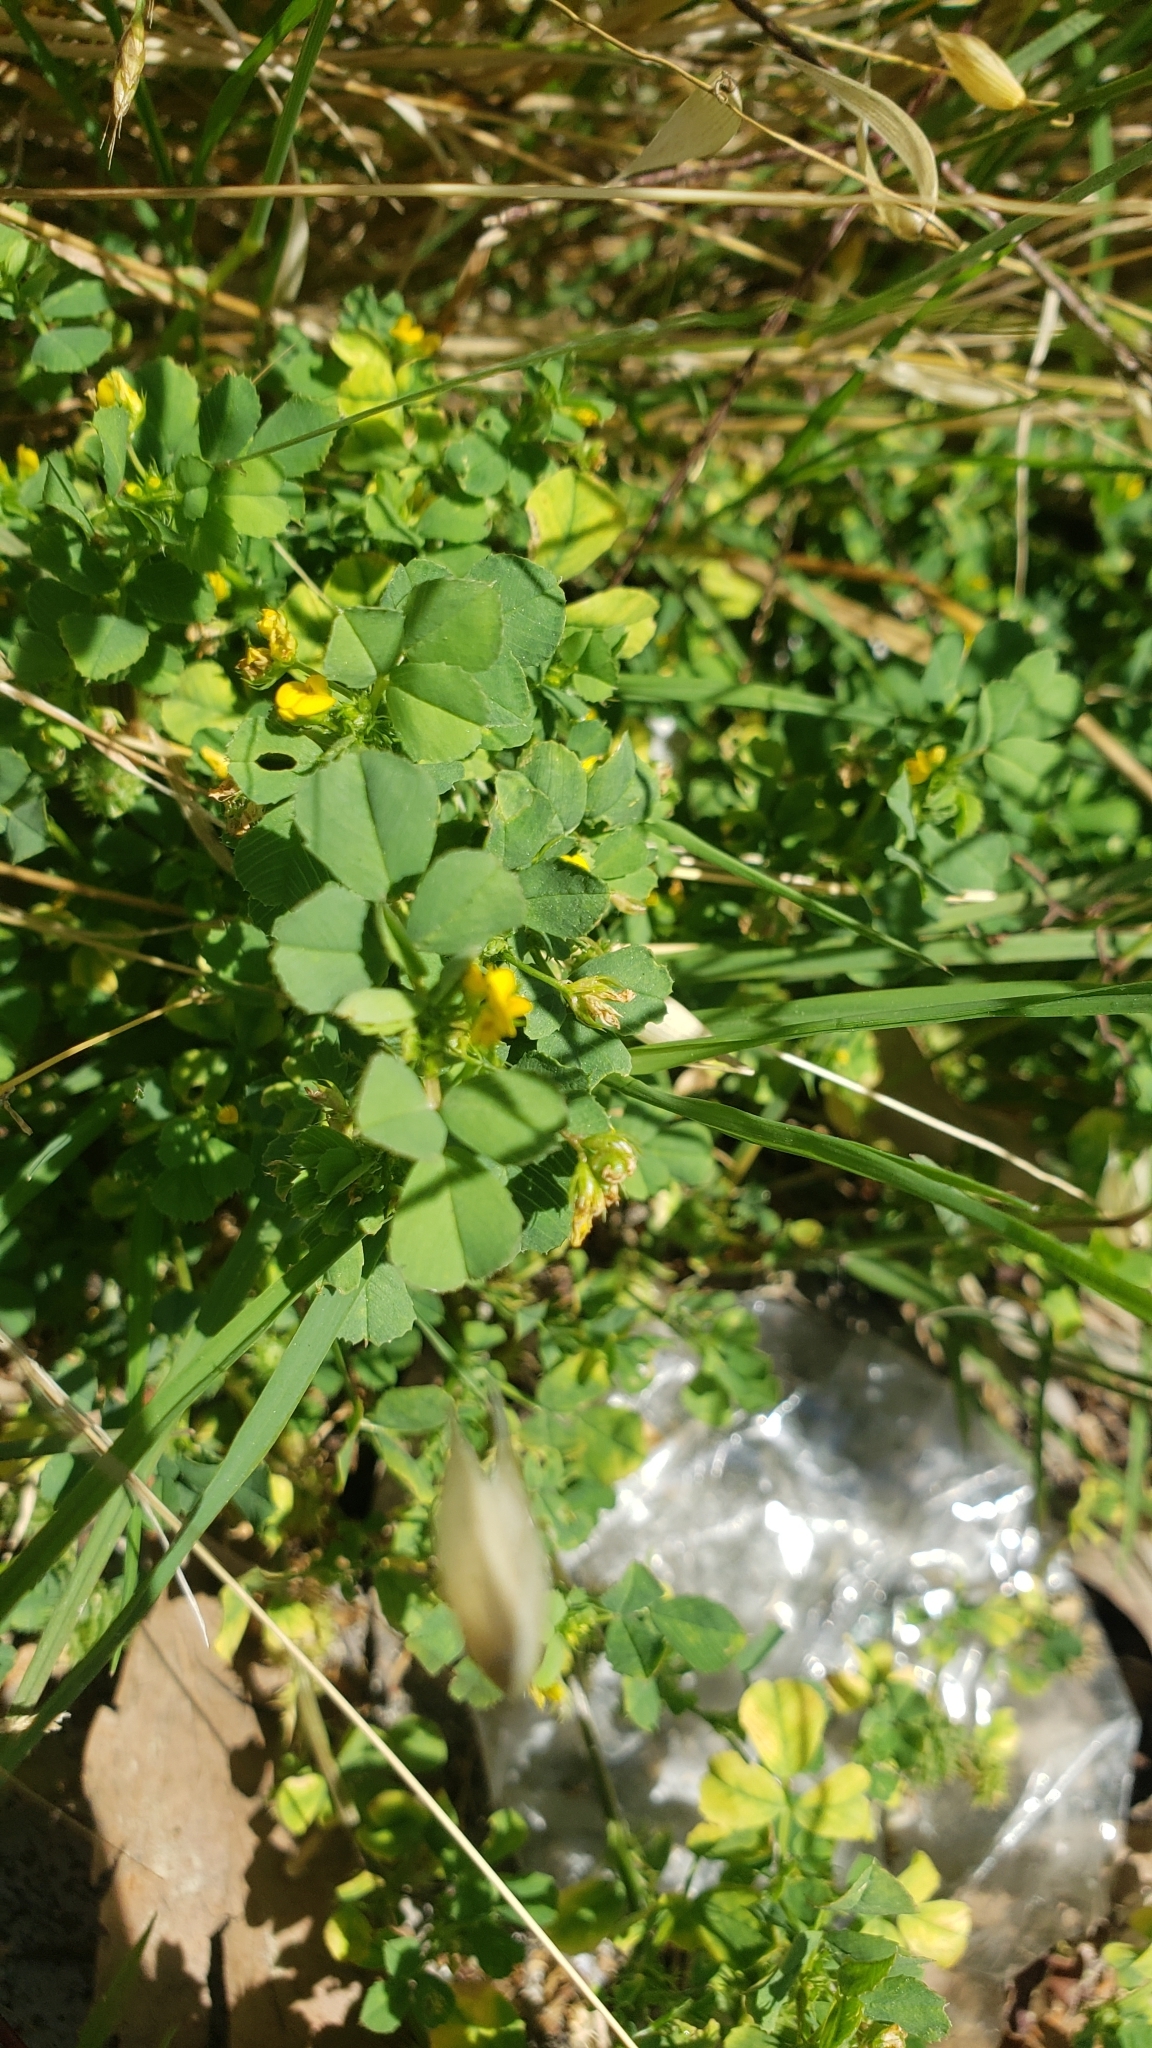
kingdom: Plantae
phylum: Tracheophyta
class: Magnoliopsida
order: Fabales
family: Fabaceae
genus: Medicago
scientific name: Medicago polymorpha
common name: Burclover
